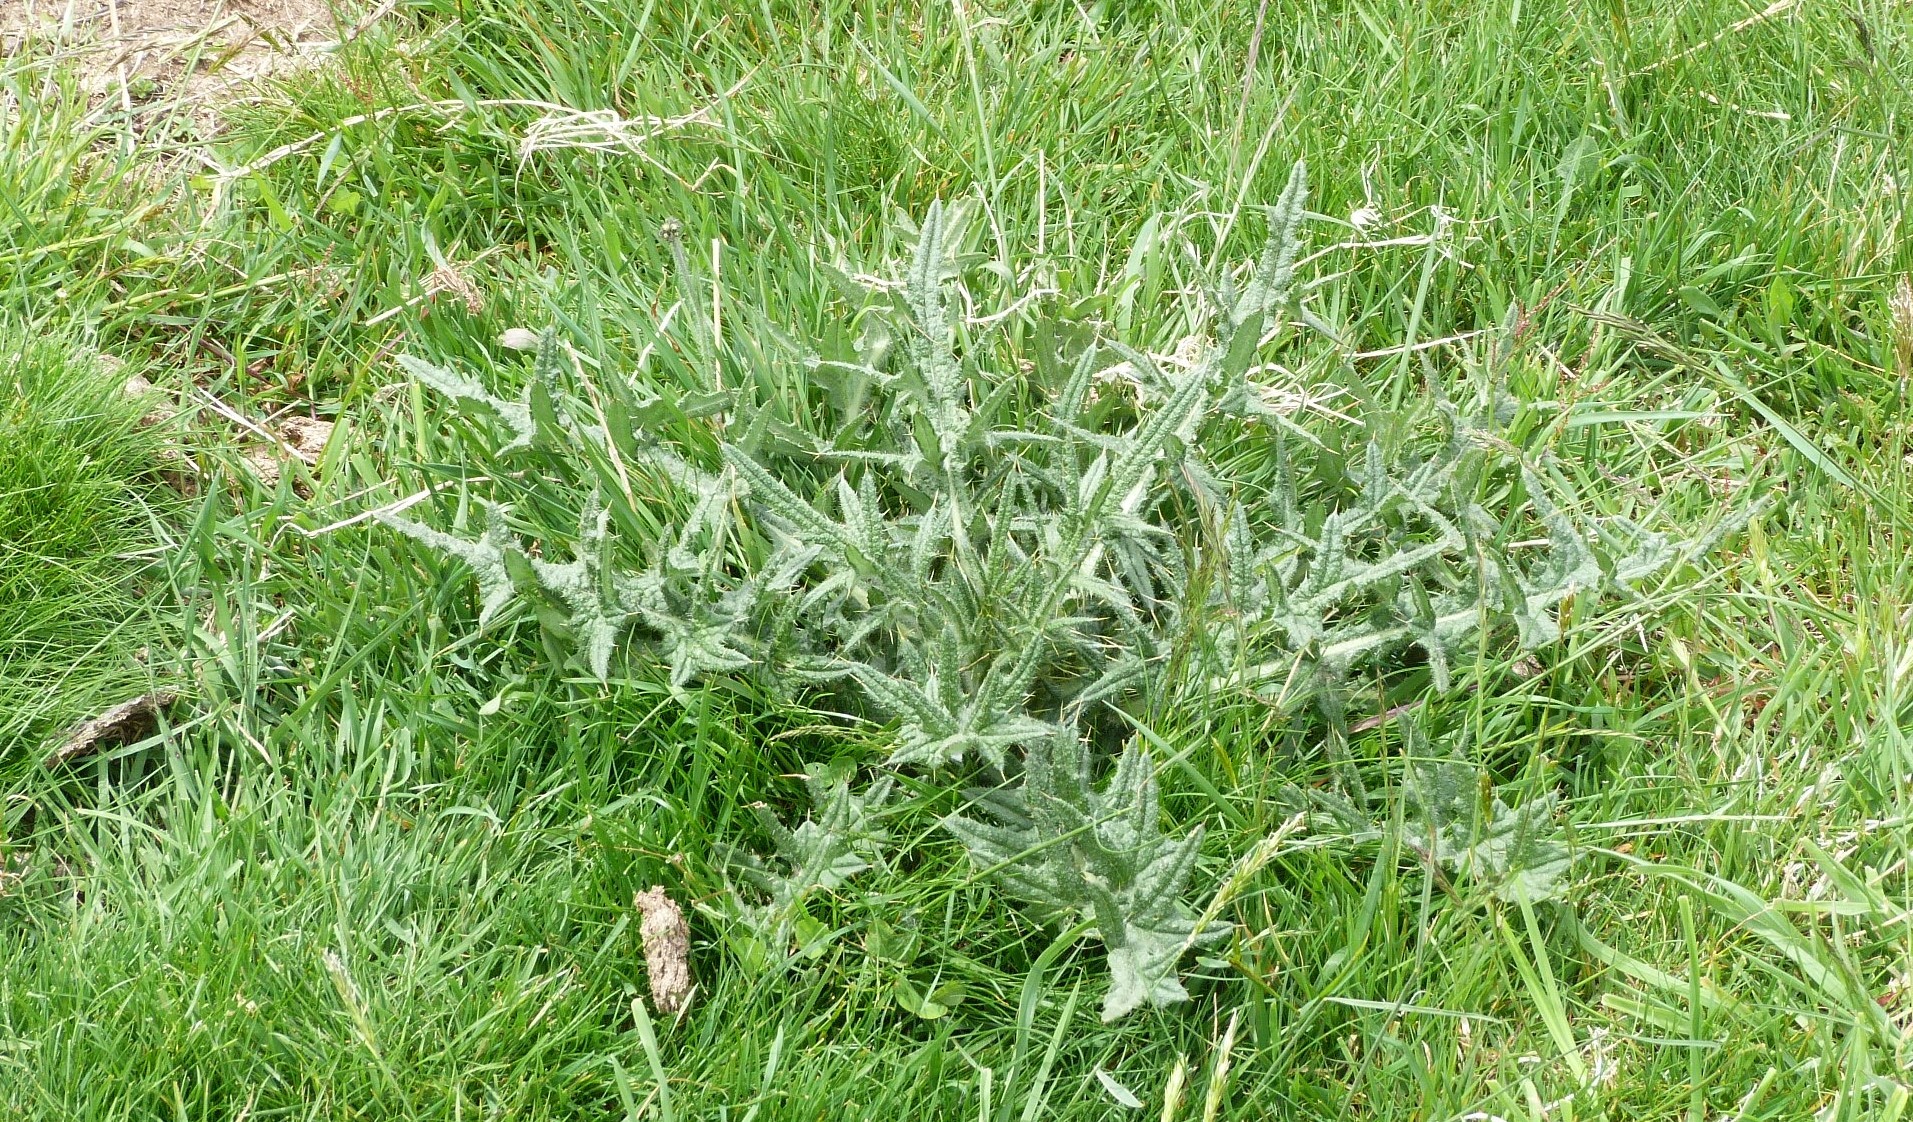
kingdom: Plantae
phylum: Tracheophyta
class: Magnoliopsida
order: Asterales
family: Asteraceae
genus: Cirsium
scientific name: Cirsium vulgare
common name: Bull thistle
